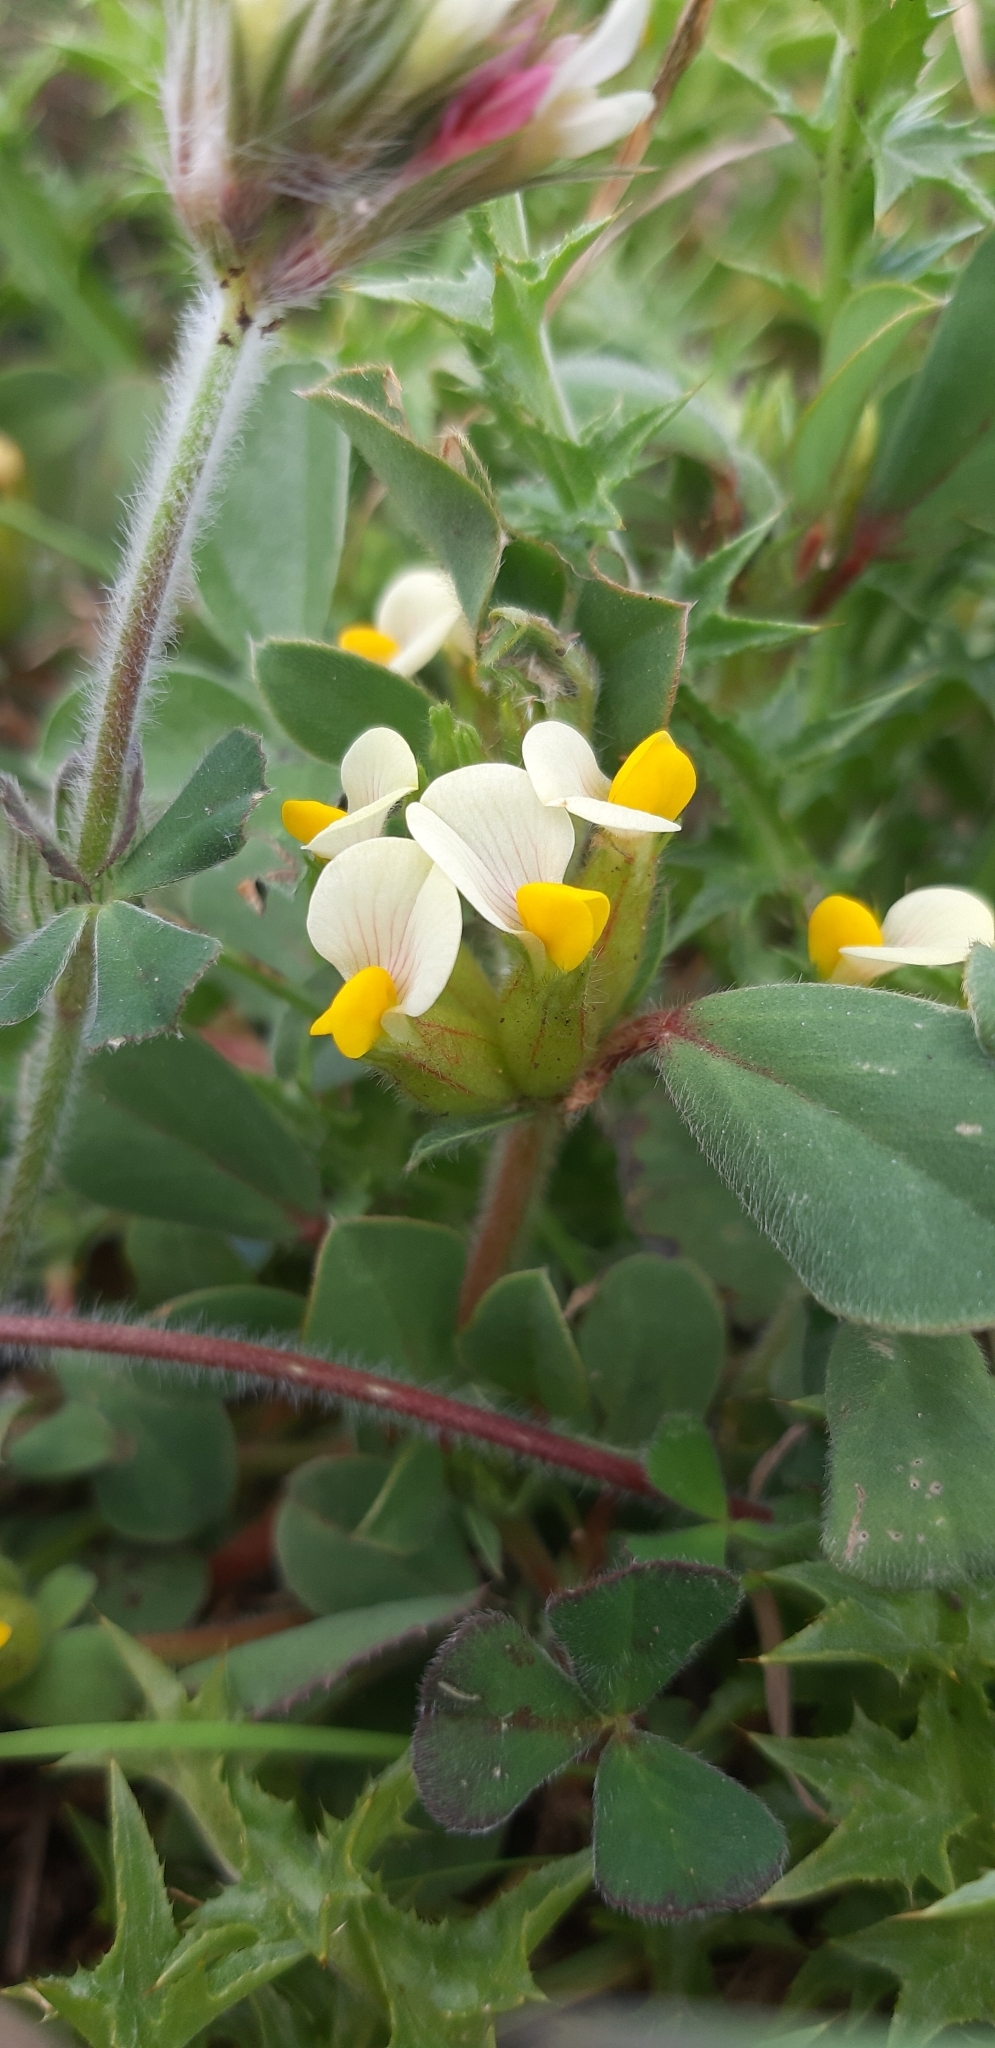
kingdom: Plantae
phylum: Tracheophyta
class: Magnoliopsida
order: Fabales
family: Fabaceae
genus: Tripodion
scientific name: Tripodion tetraphyllum
